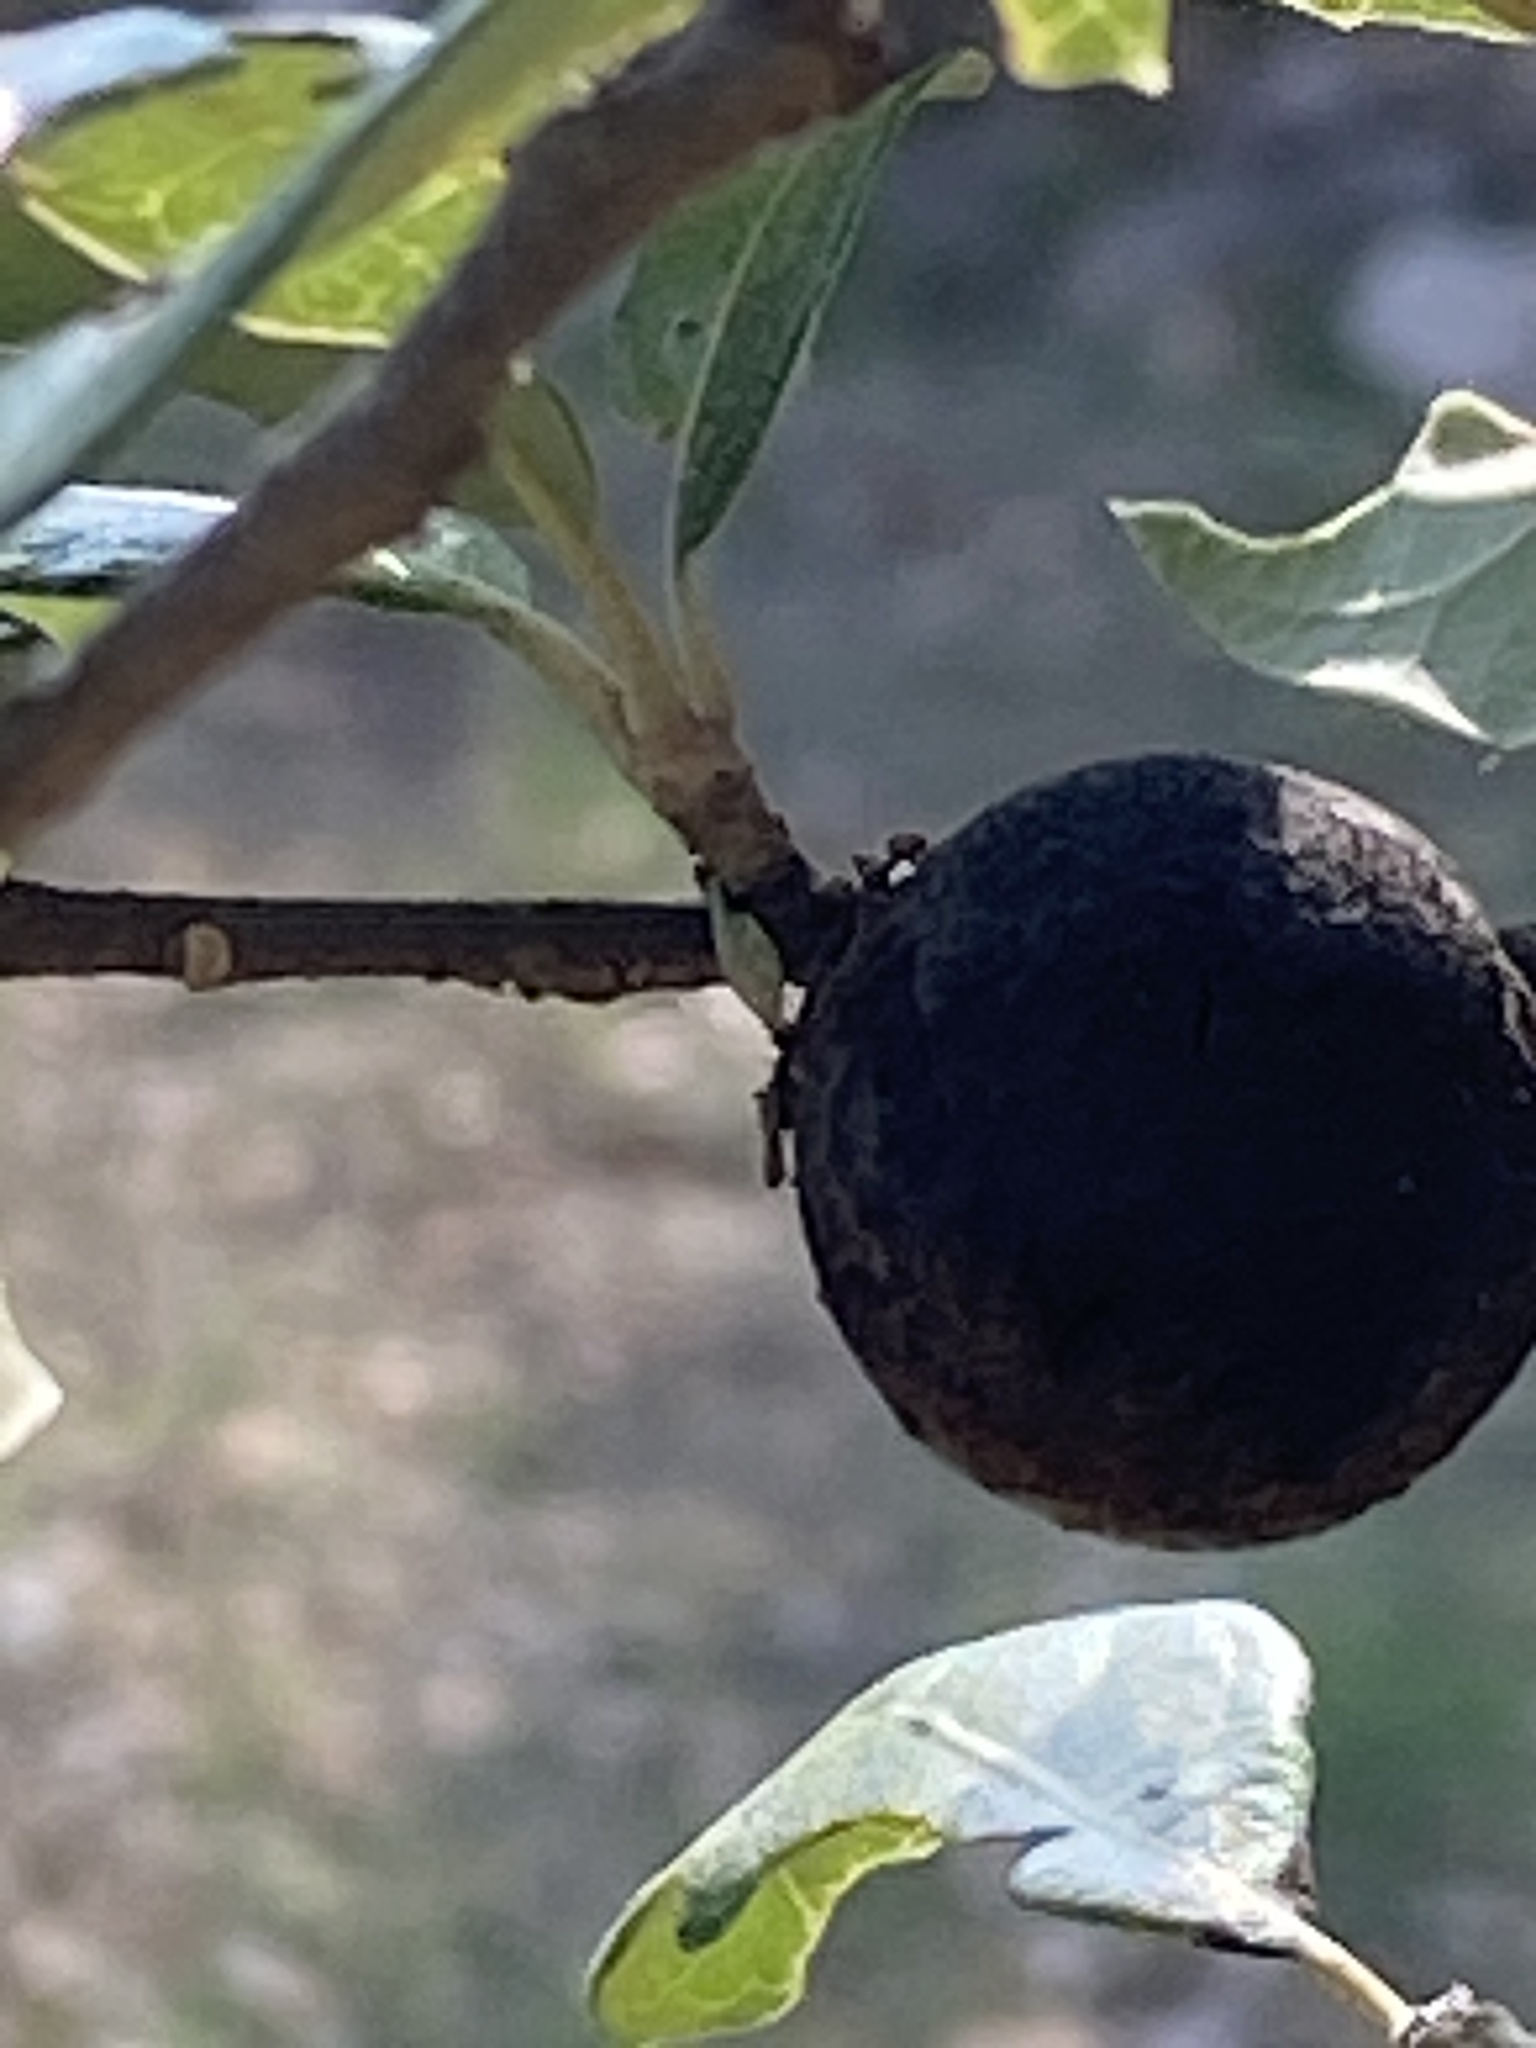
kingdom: Animalia
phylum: Arthropoda
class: Insecta
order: Hymenoptera
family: Cynipidae
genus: Disholcaspis
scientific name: Disholcaspis
